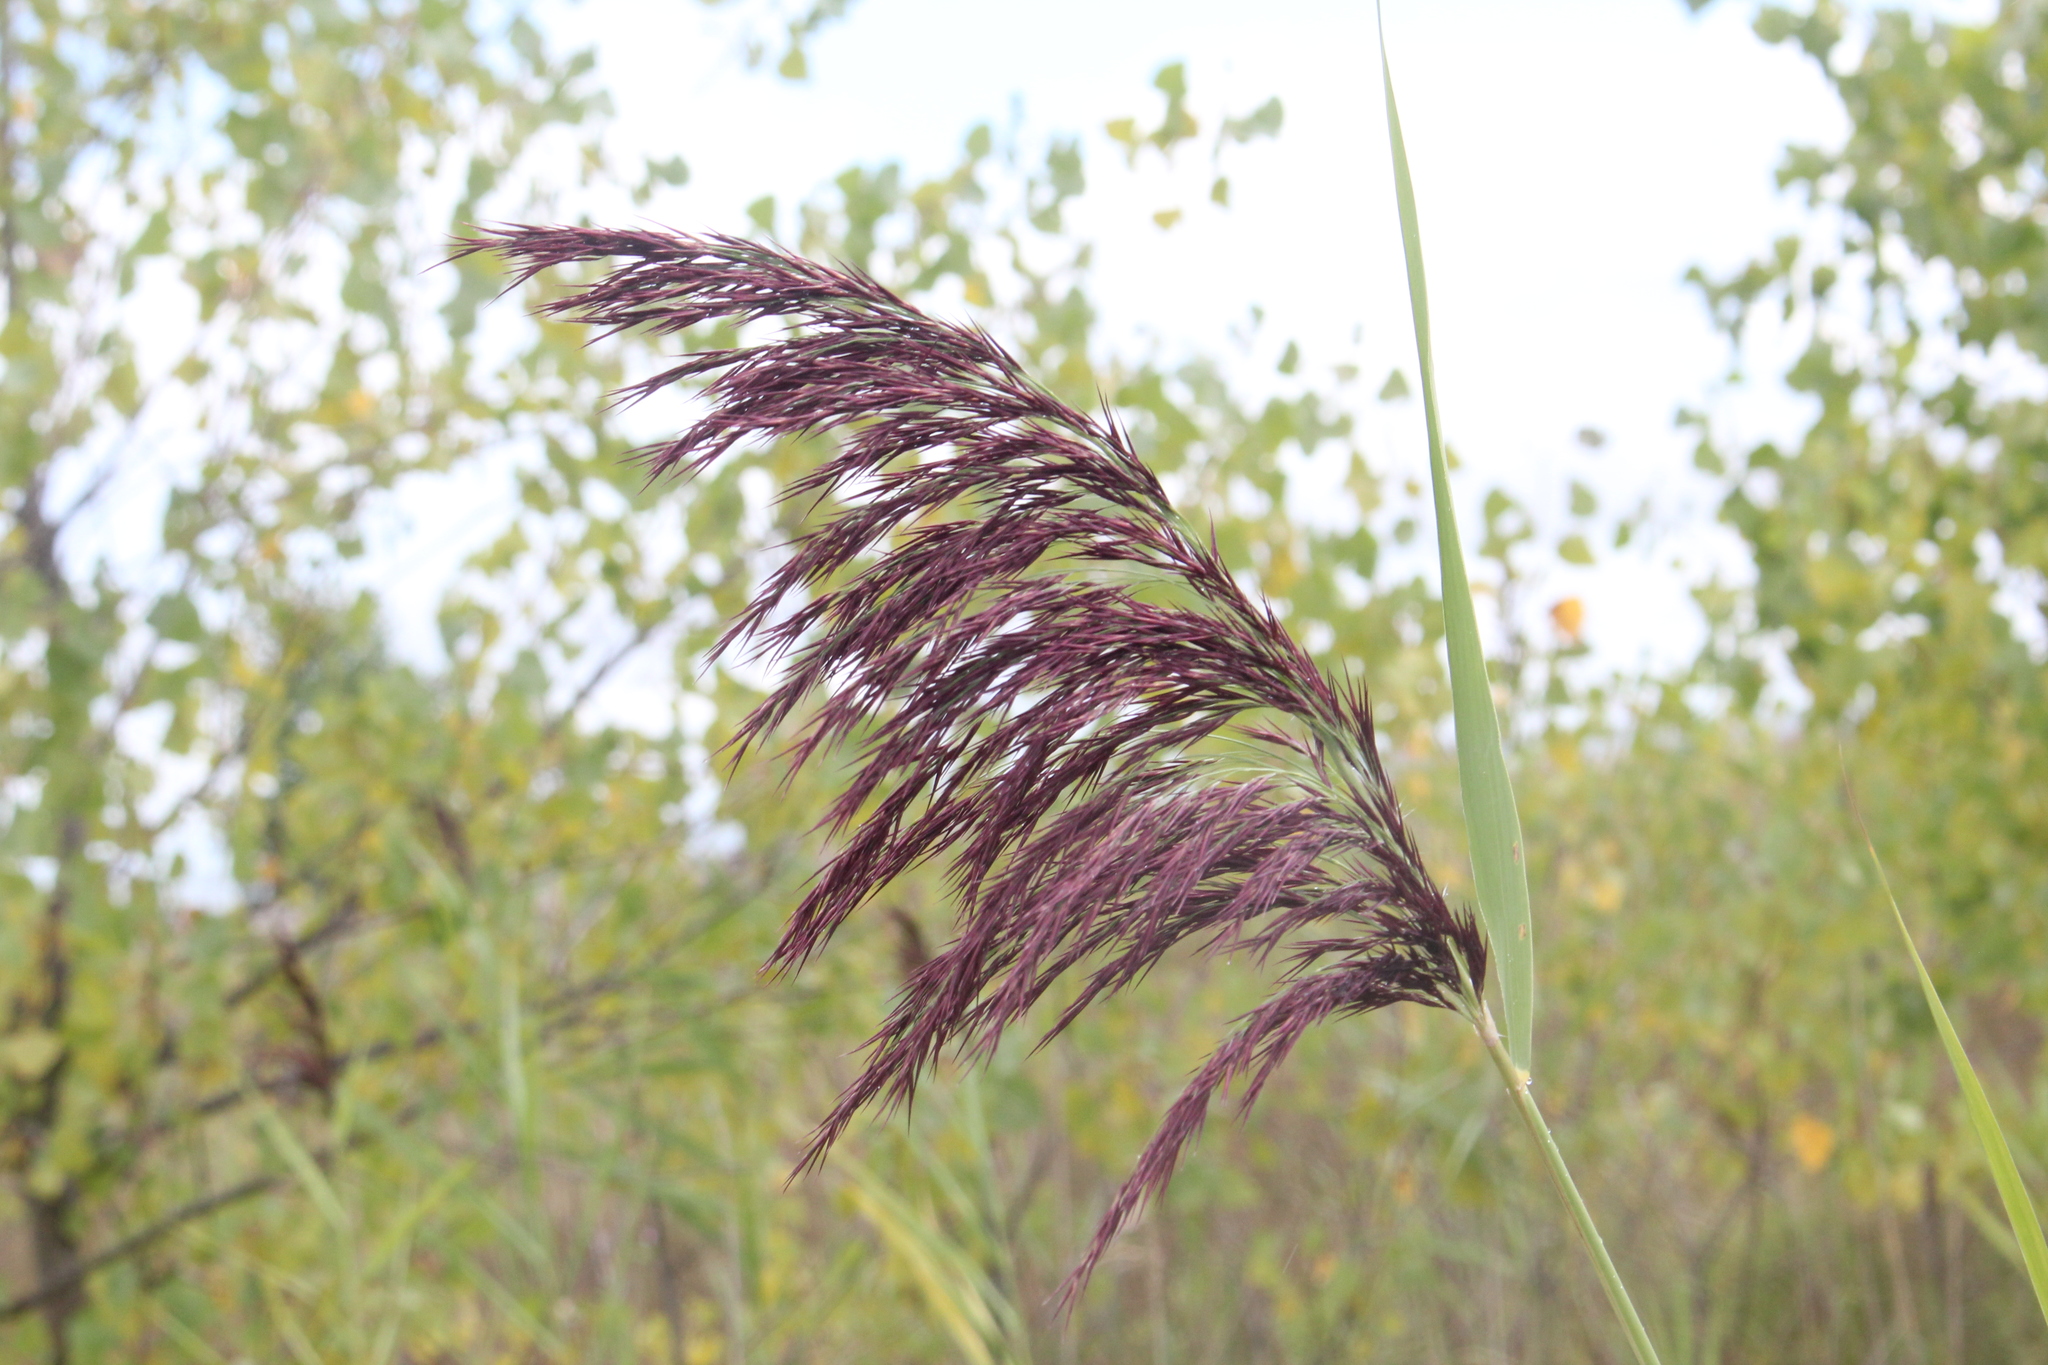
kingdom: Plantae
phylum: Tracheophyta
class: Liliopsida
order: Poales
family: Poaceae
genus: Phragmites
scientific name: Phragmites australis
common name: Common reed
